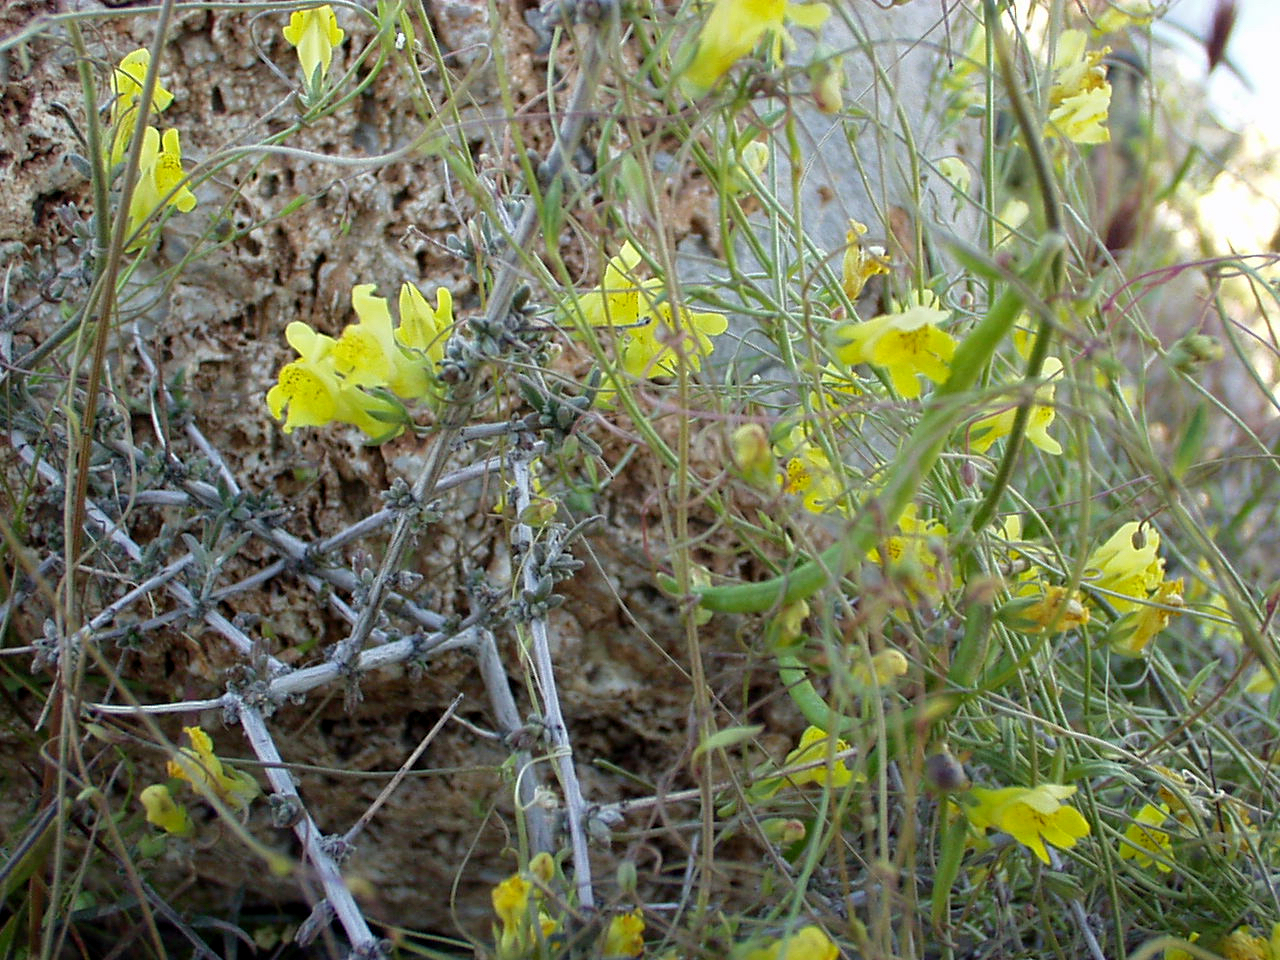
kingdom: Plantae
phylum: Tracheophyta
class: Magnoliopsida
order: Lamiales
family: Plantaginaceae
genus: Neogaerrhinum
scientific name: Neogaerrhinum filipes
